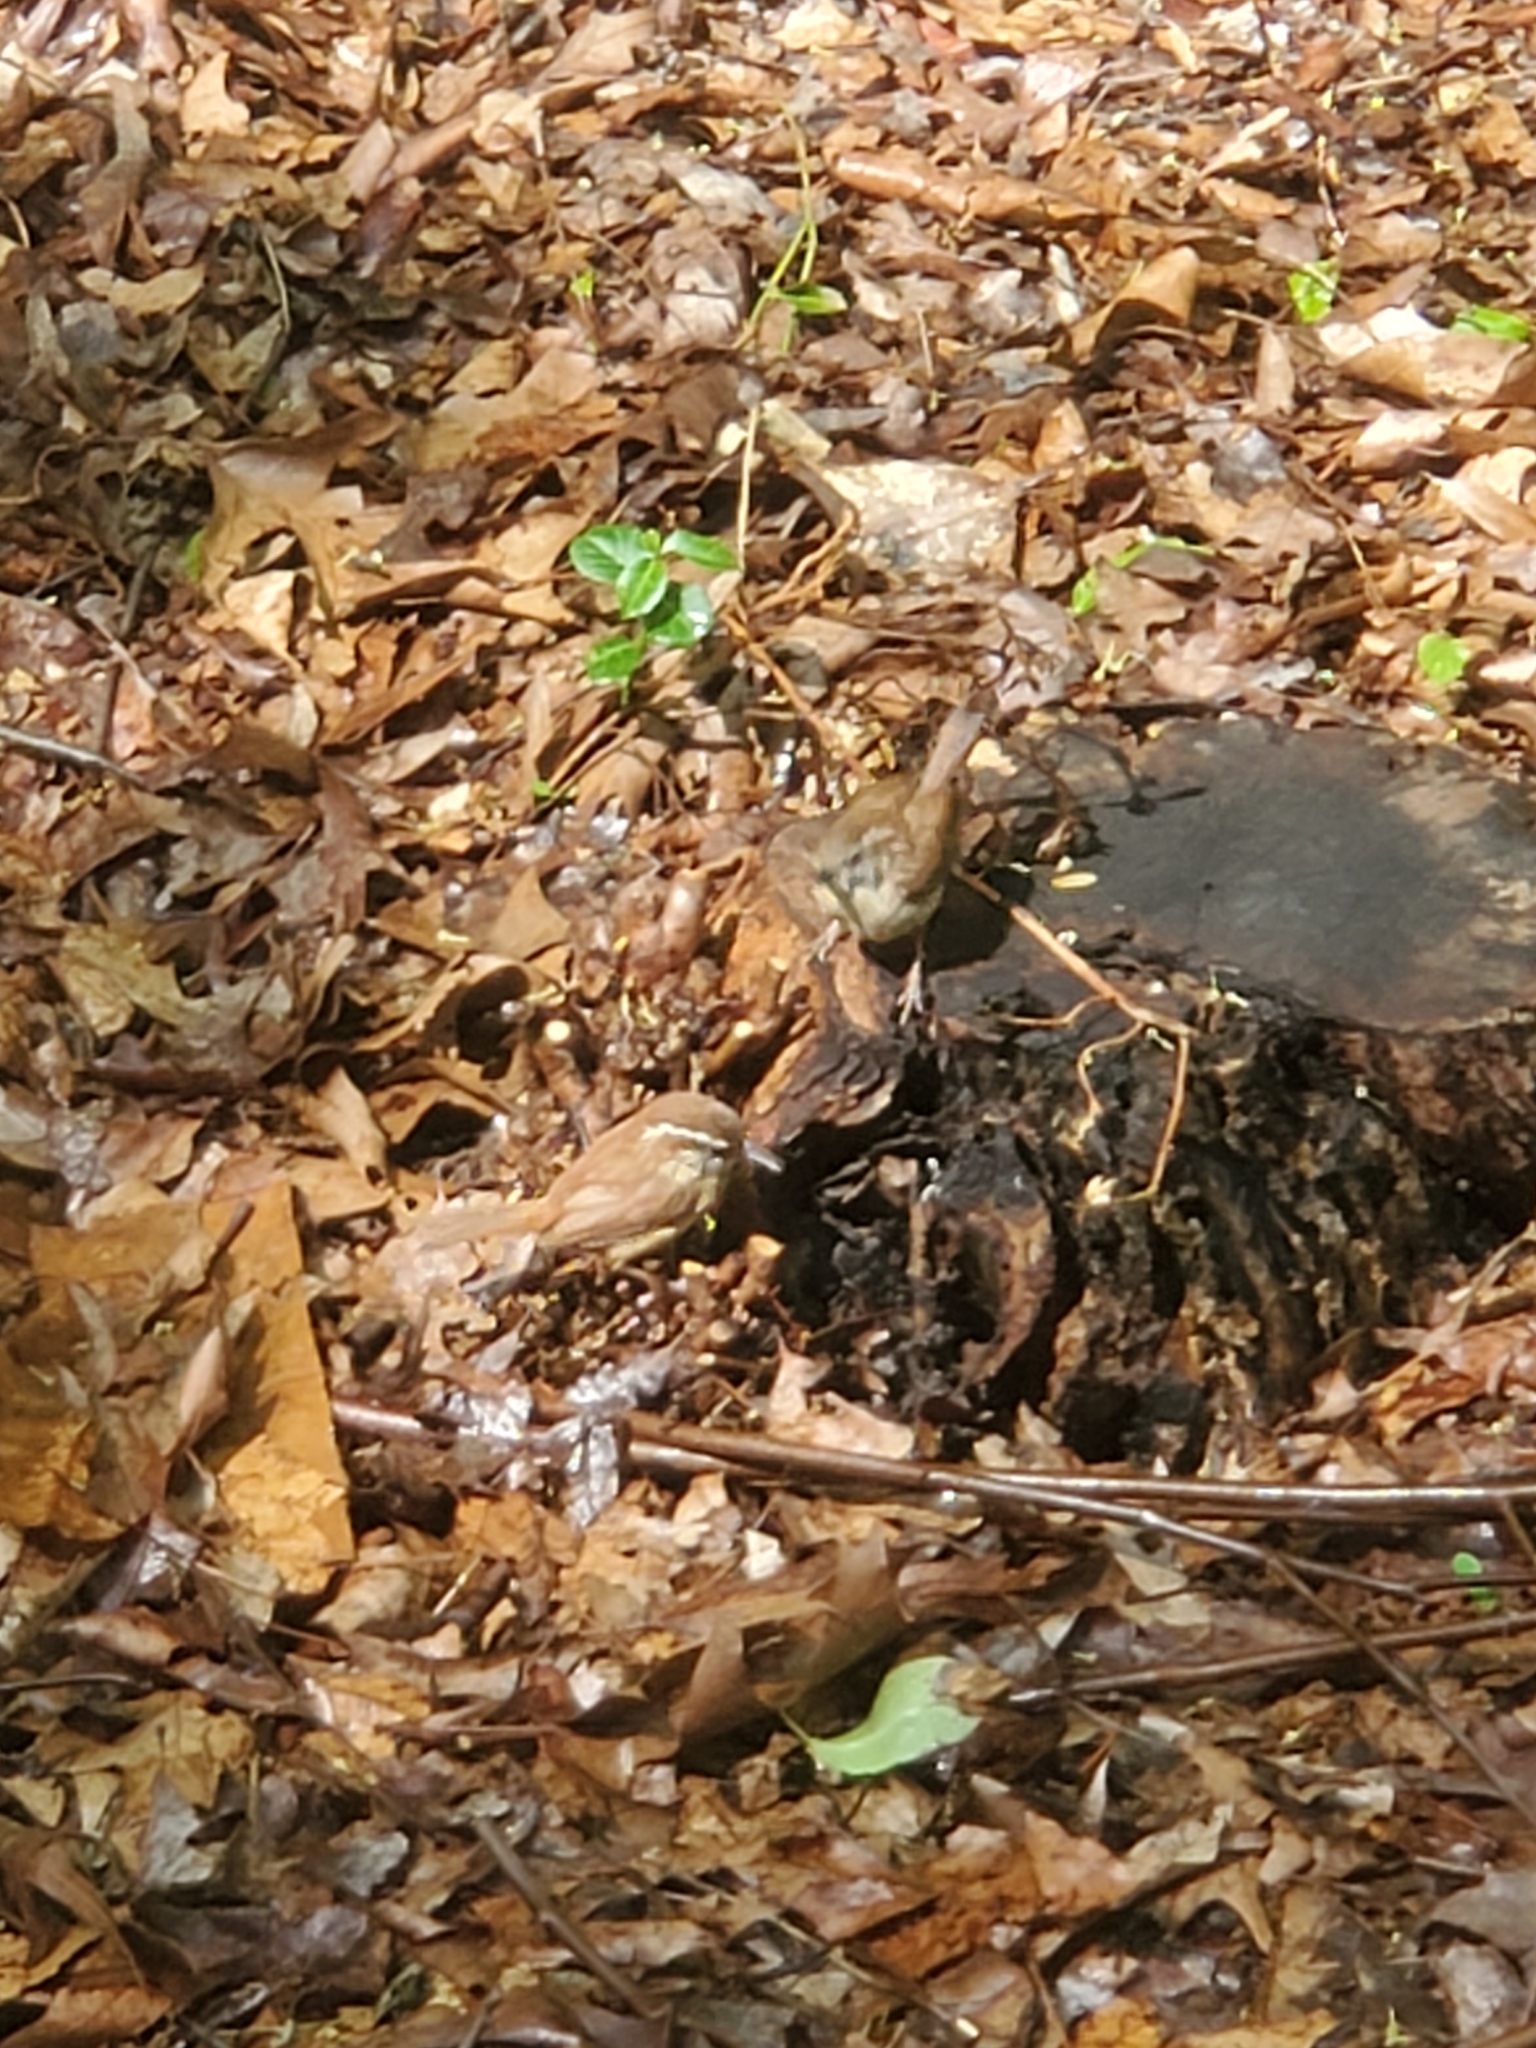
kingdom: Animalia
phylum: Chordata
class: Aves
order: Passeriformes
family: Troglodytidae
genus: Thryothorus
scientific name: Thryothorus ludovicianus
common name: Carolina wren
